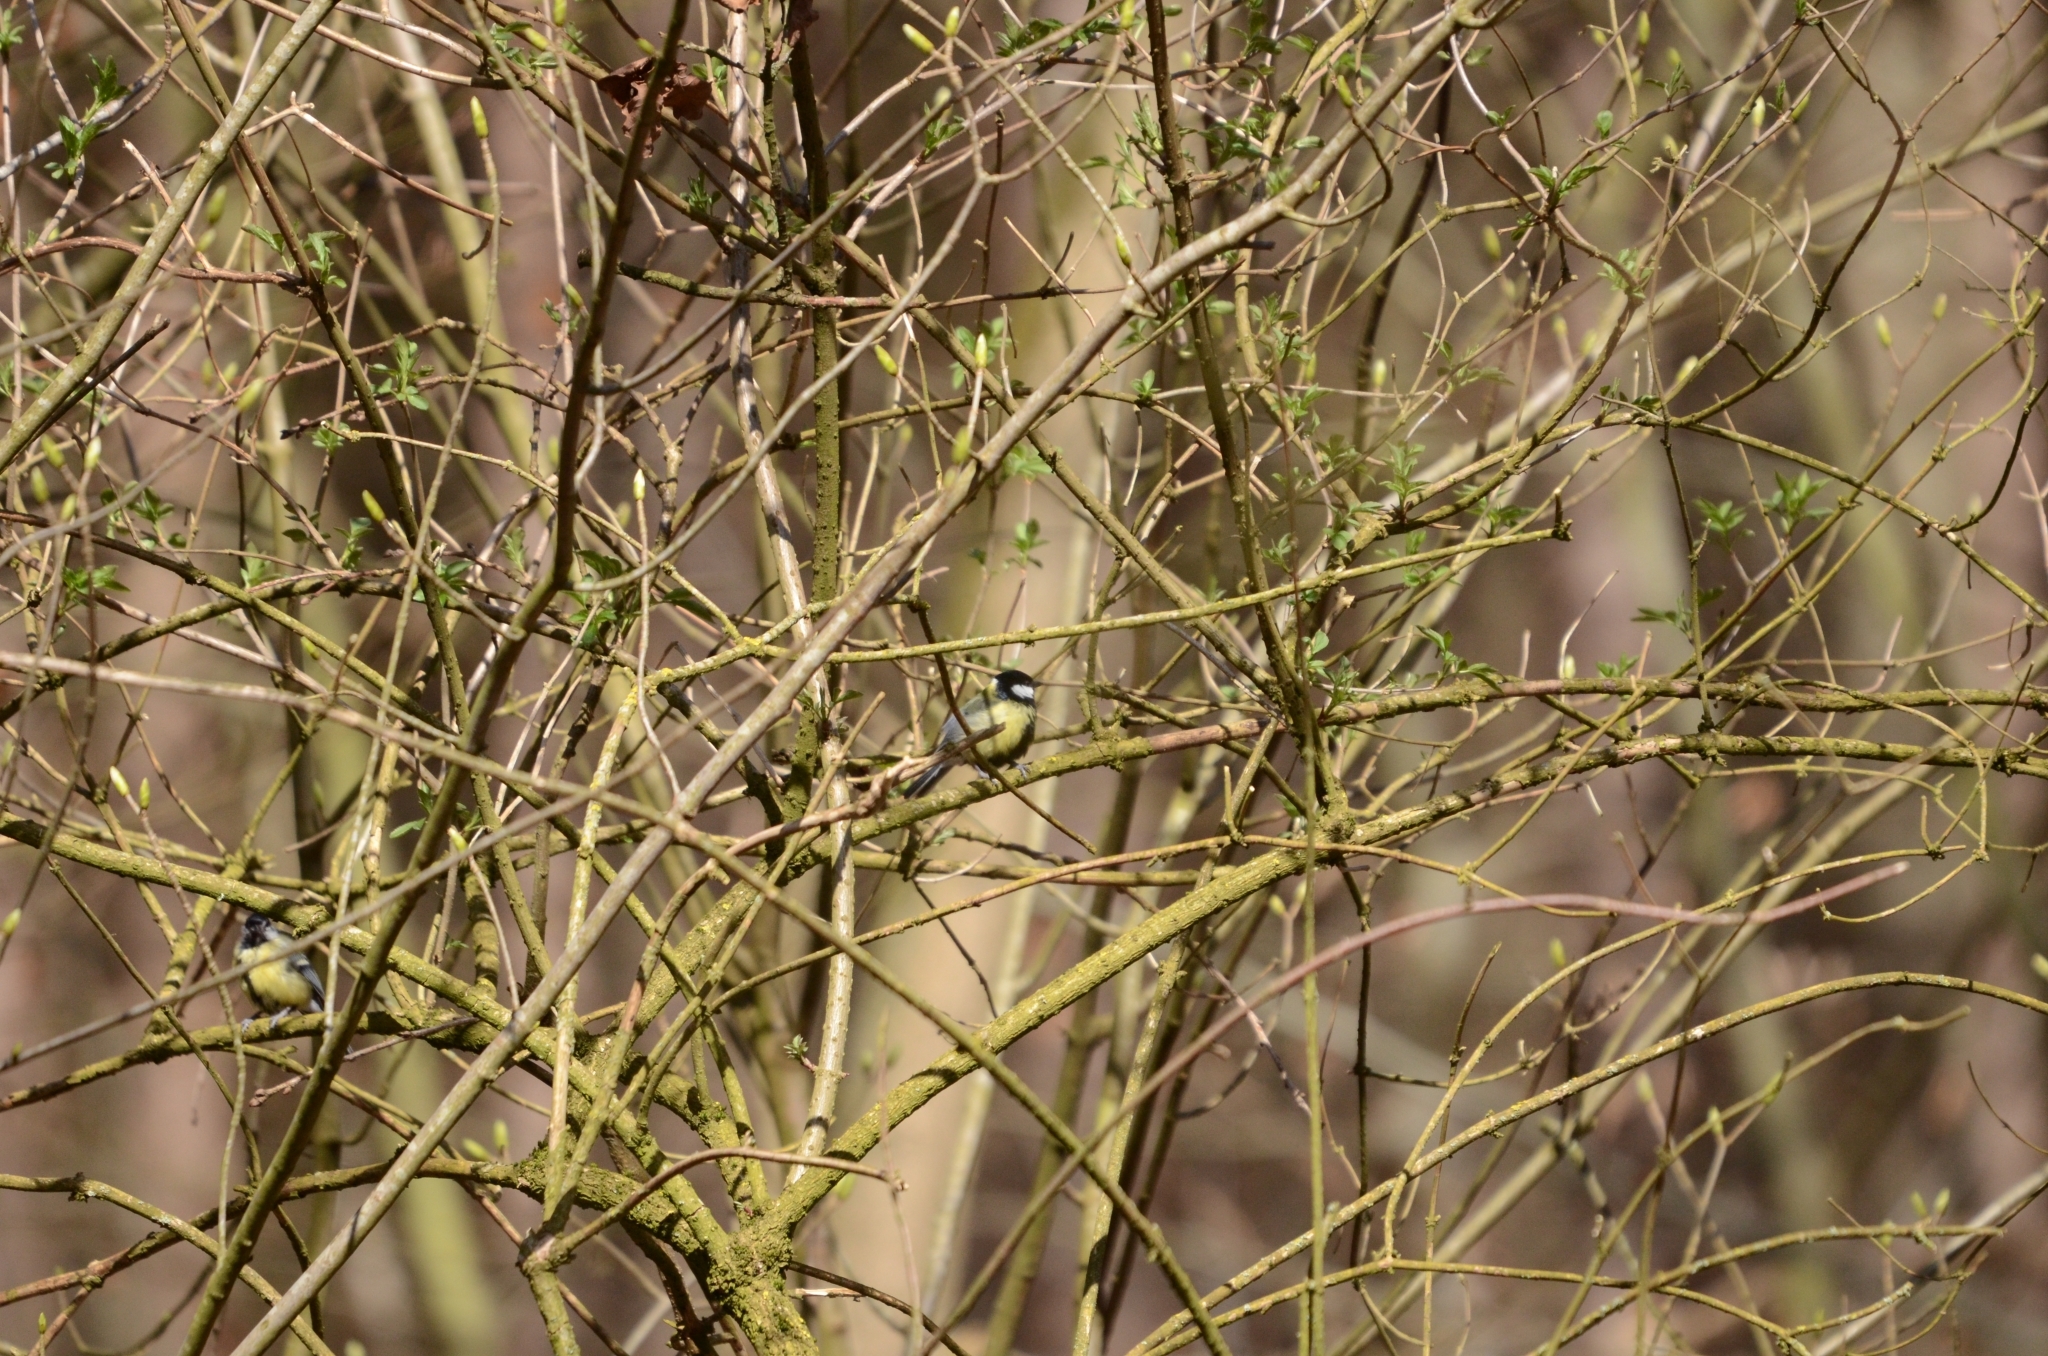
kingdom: Animalia
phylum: Chordata
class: Aves
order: Passeriformes
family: Paridae
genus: Parus
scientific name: Parus major
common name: Great tit
